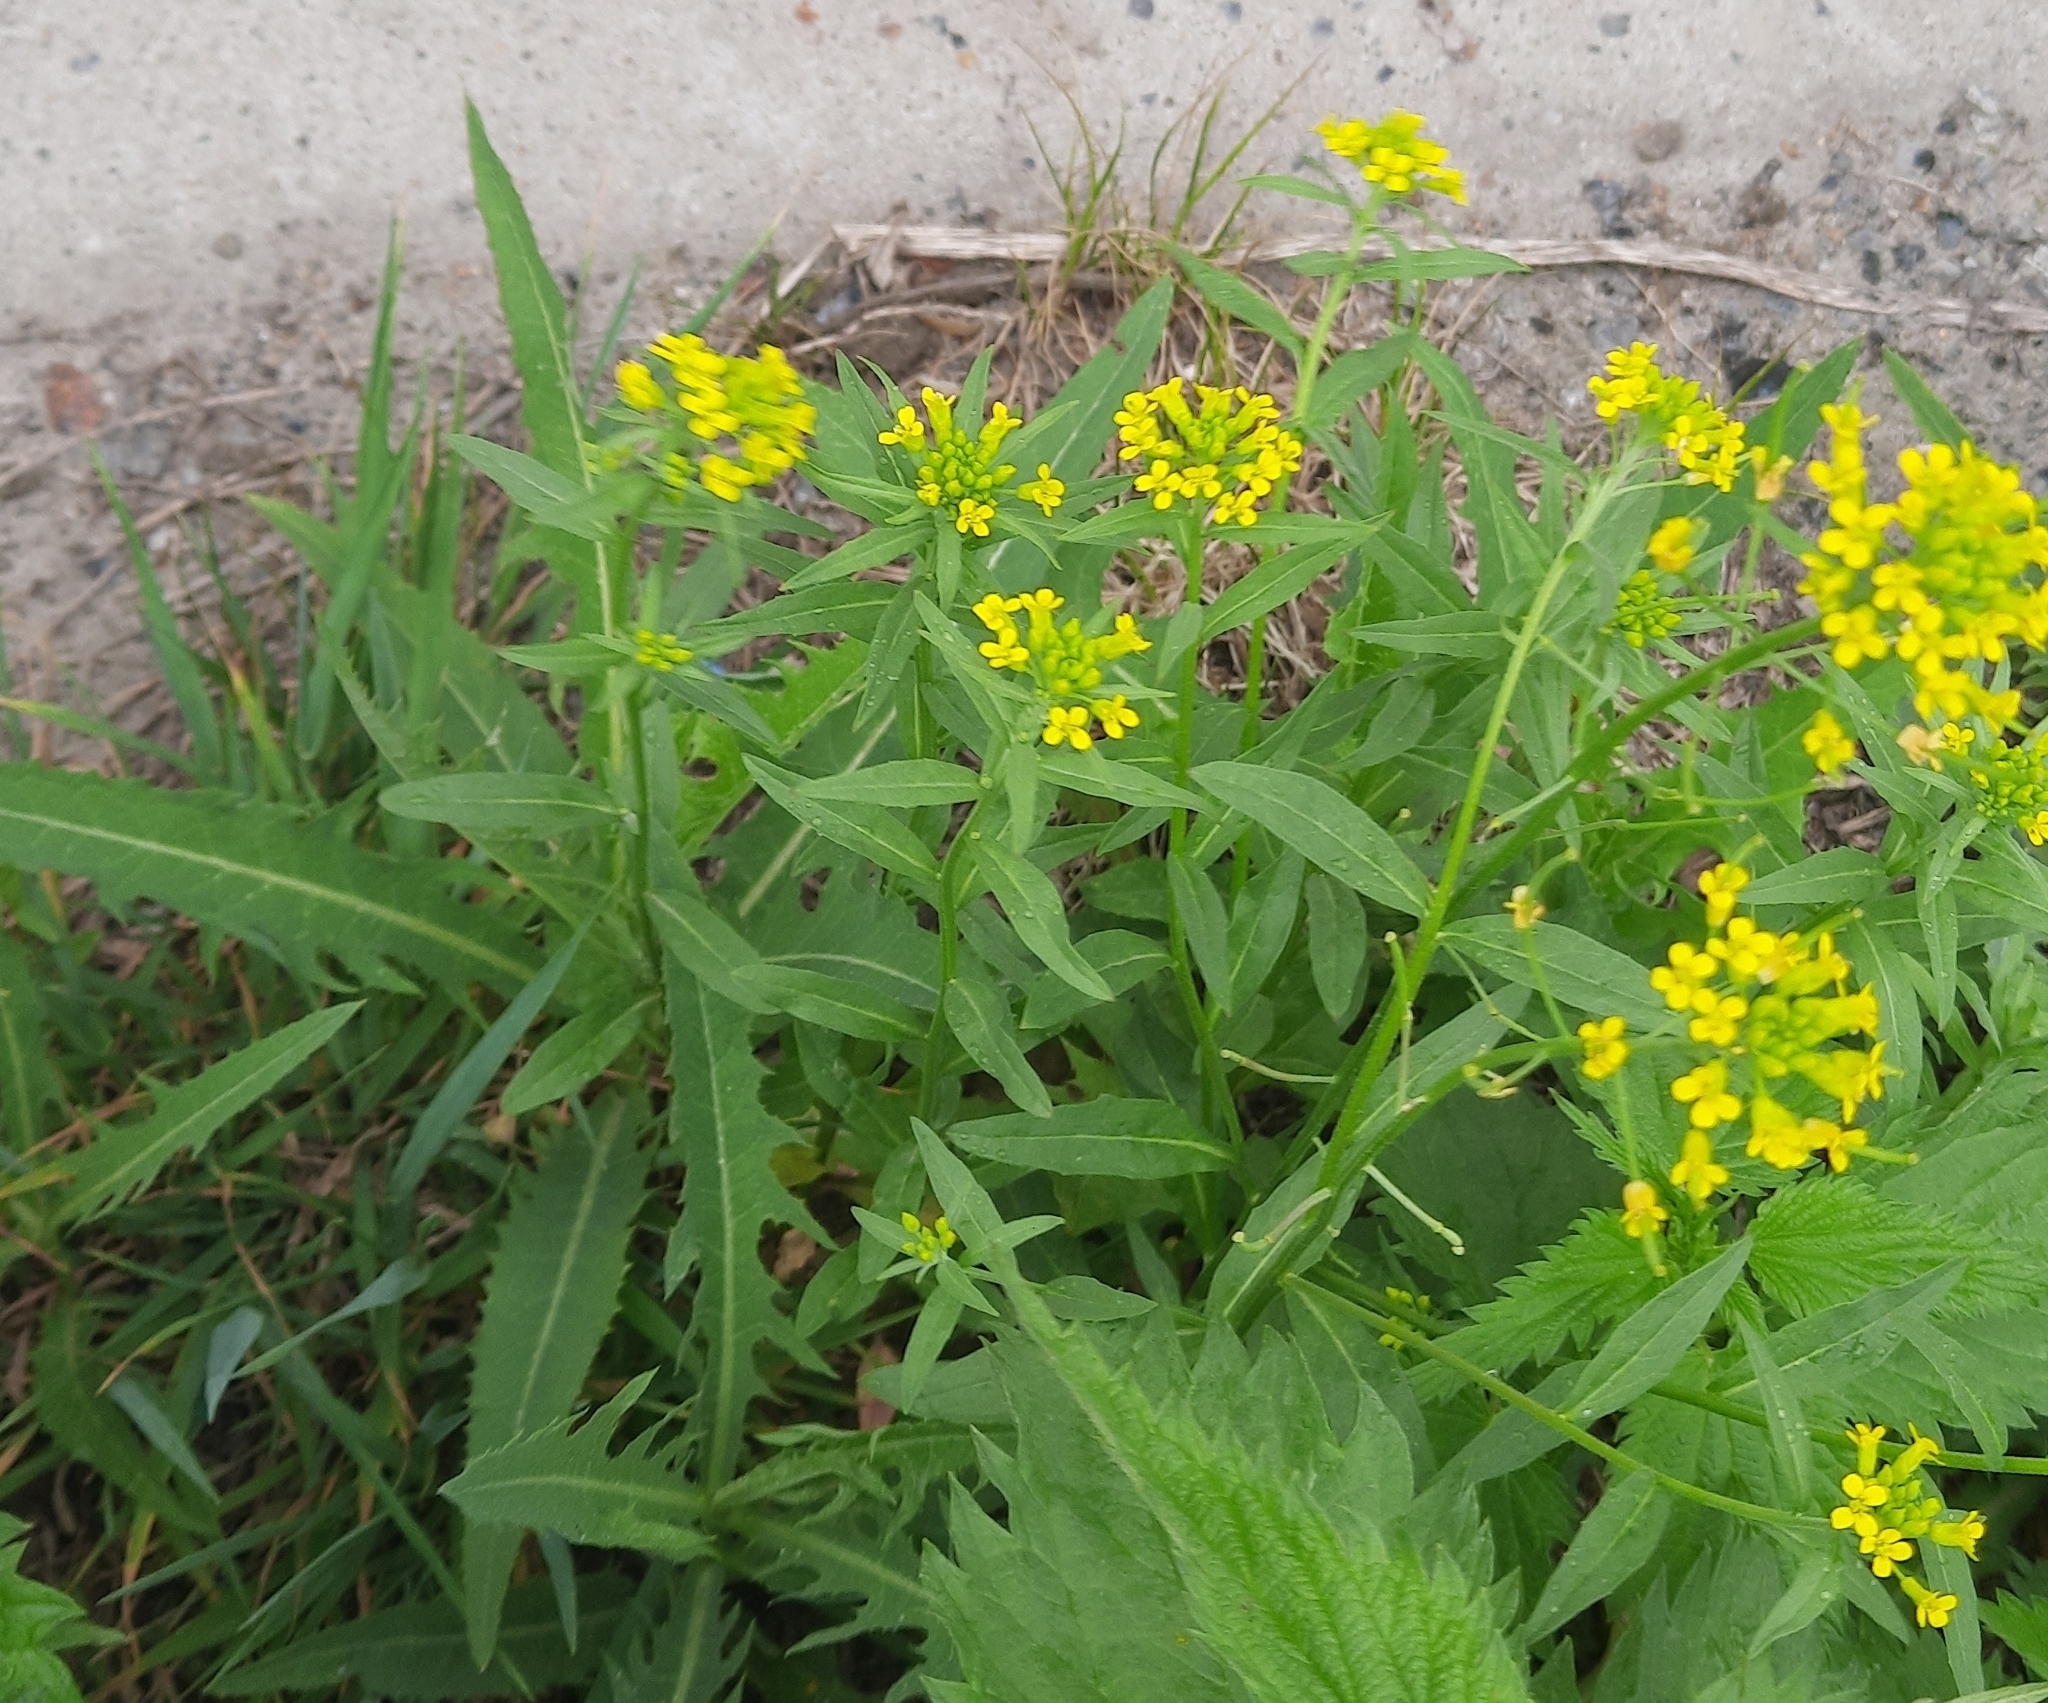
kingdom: Plantae
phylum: Tracheophyta
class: Magnoliopsida
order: Brassicales
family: Brassicaceae
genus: Erysimum
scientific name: Erysimum cheiranthoides
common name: Treacle mustard
